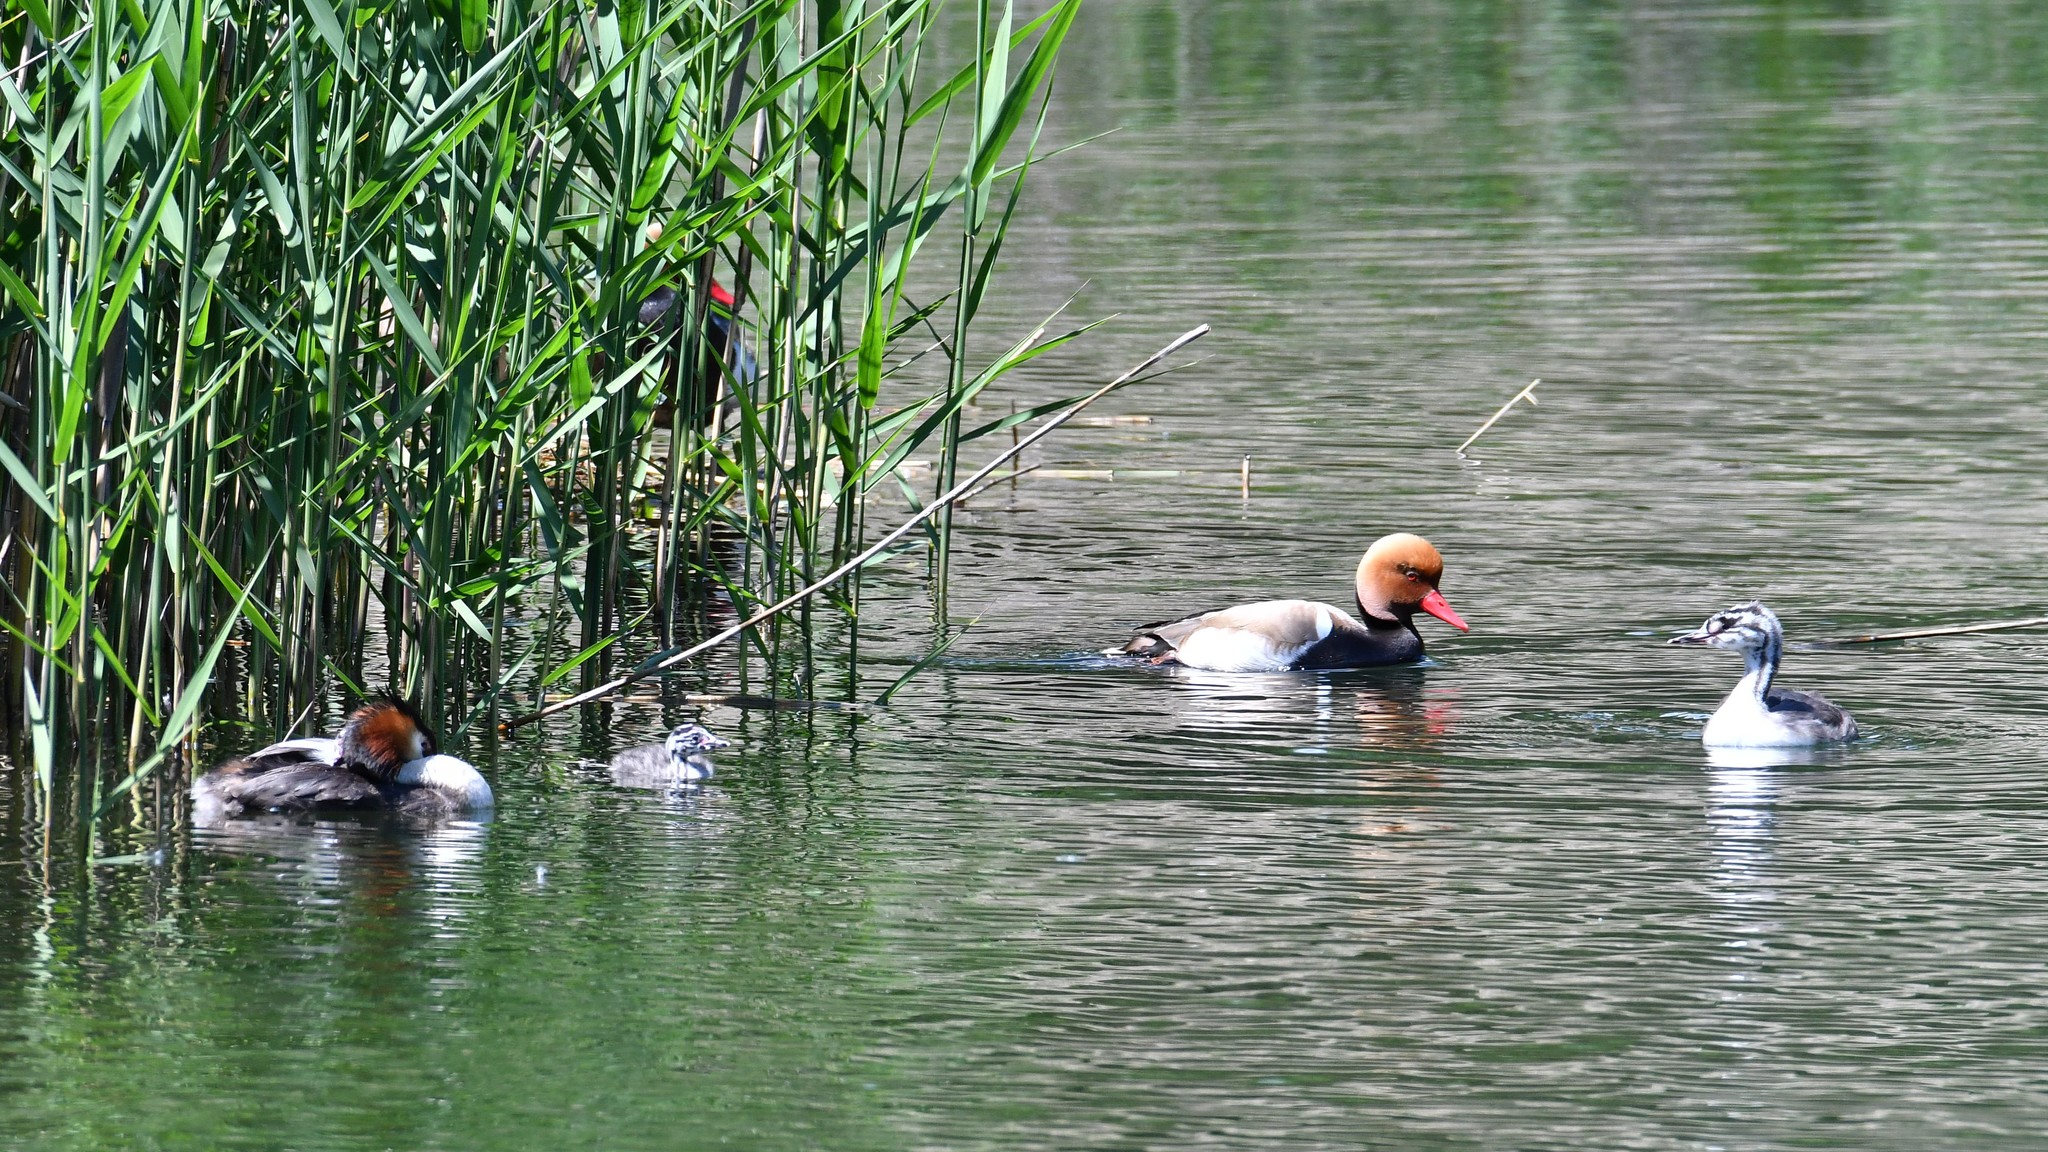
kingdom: Animalia
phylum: Chordata
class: Aves
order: Anseriformes
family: Anatidae
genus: Netta
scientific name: Netta rufina
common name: Red-crested pochard
